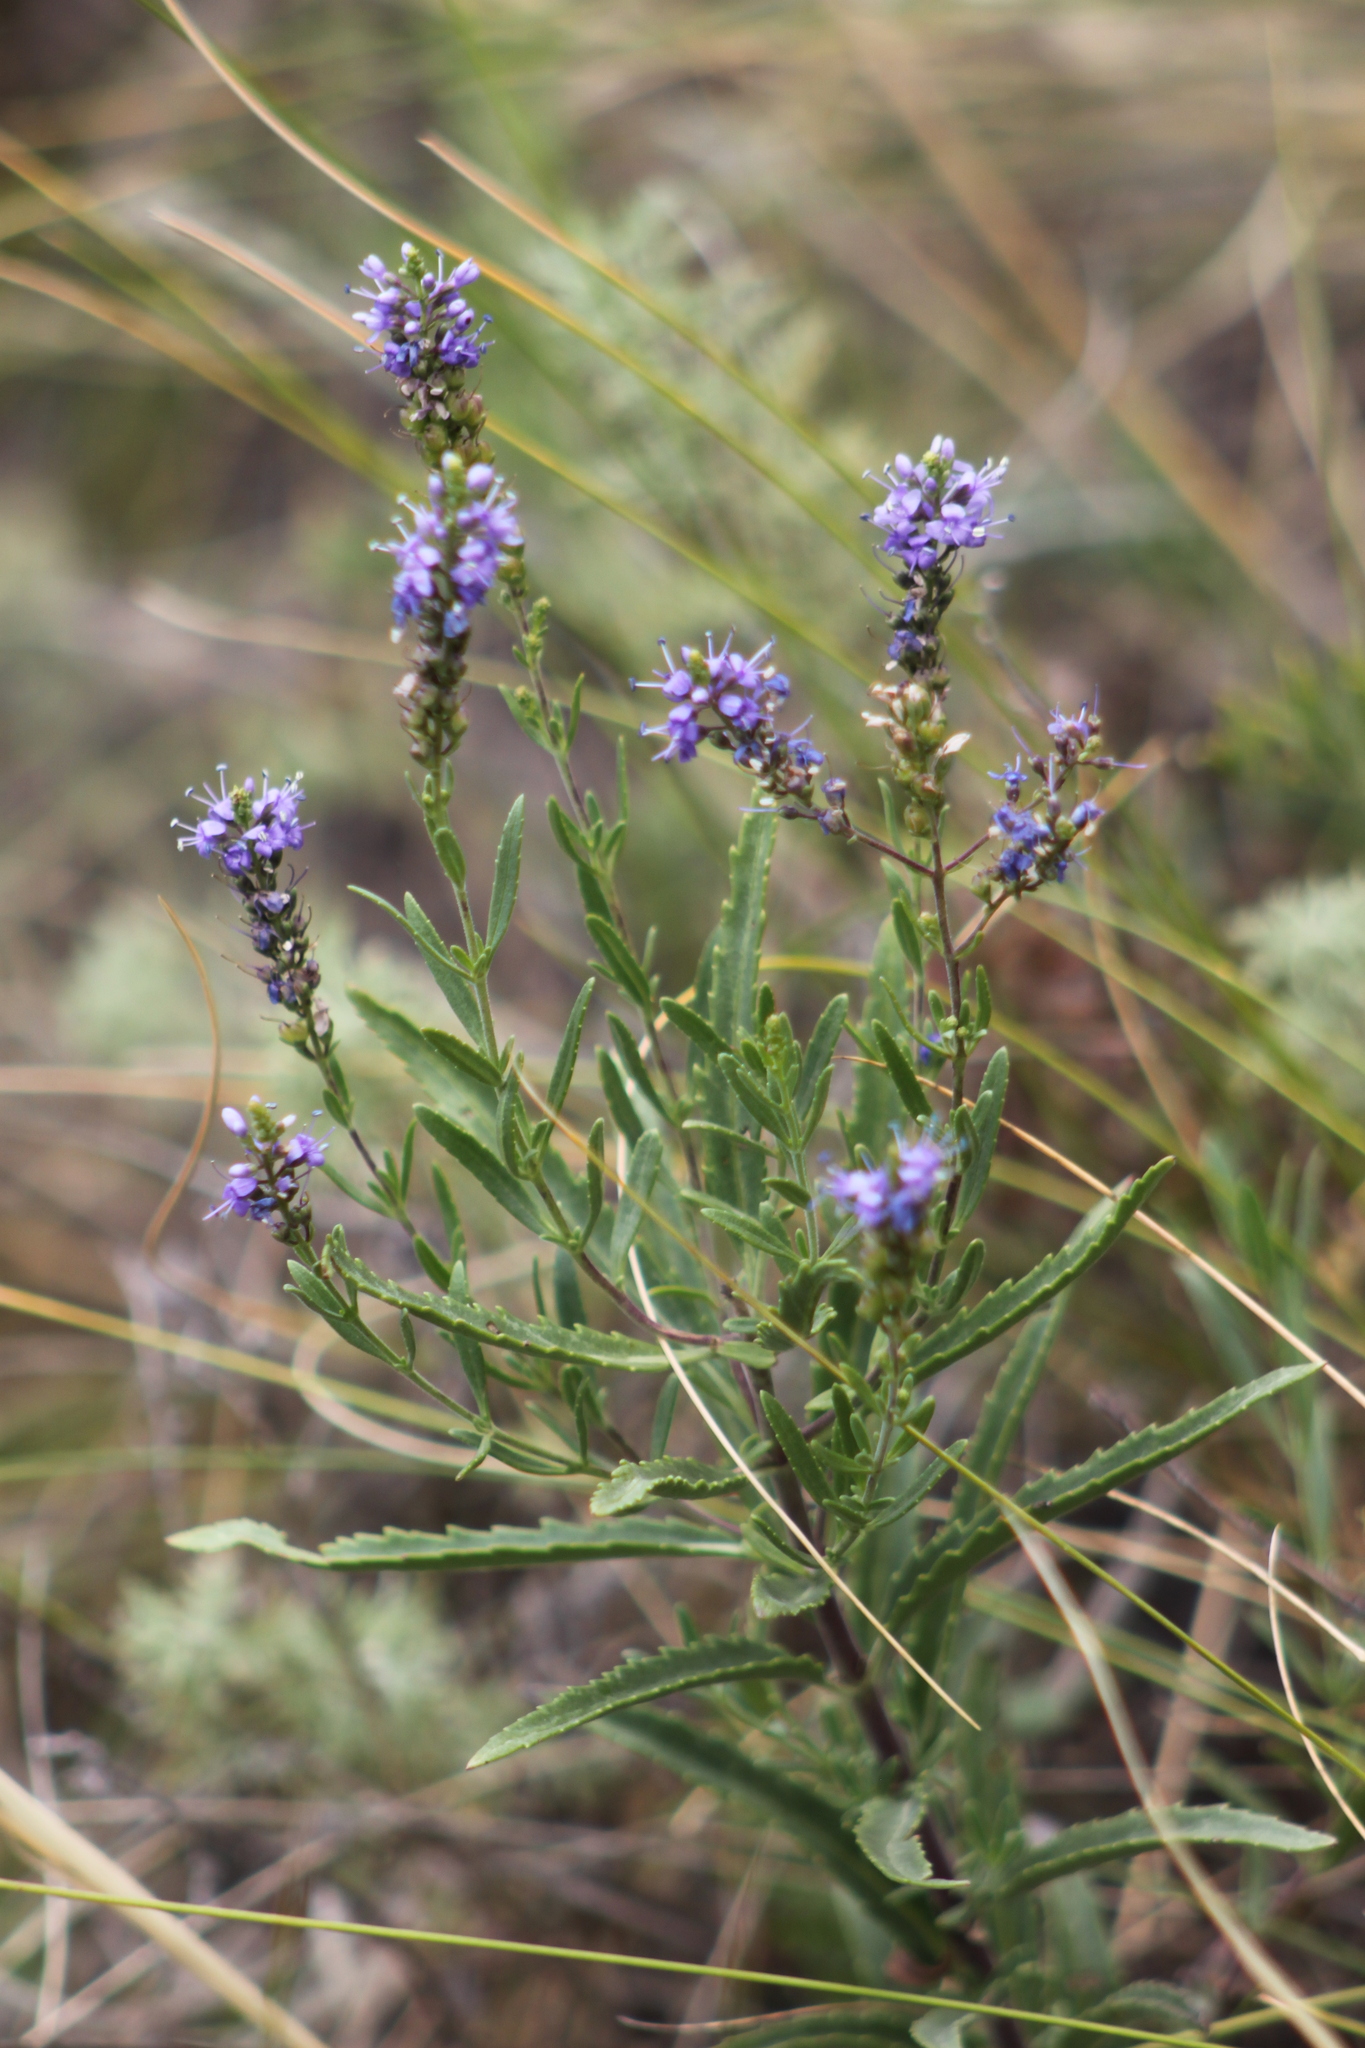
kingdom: Plantae
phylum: Tracheophyta
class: Magnoliopsida
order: Lamiales
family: Plantaginaceae
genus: Veronica
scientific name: Veronica spuria
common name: Bastard speedwell
